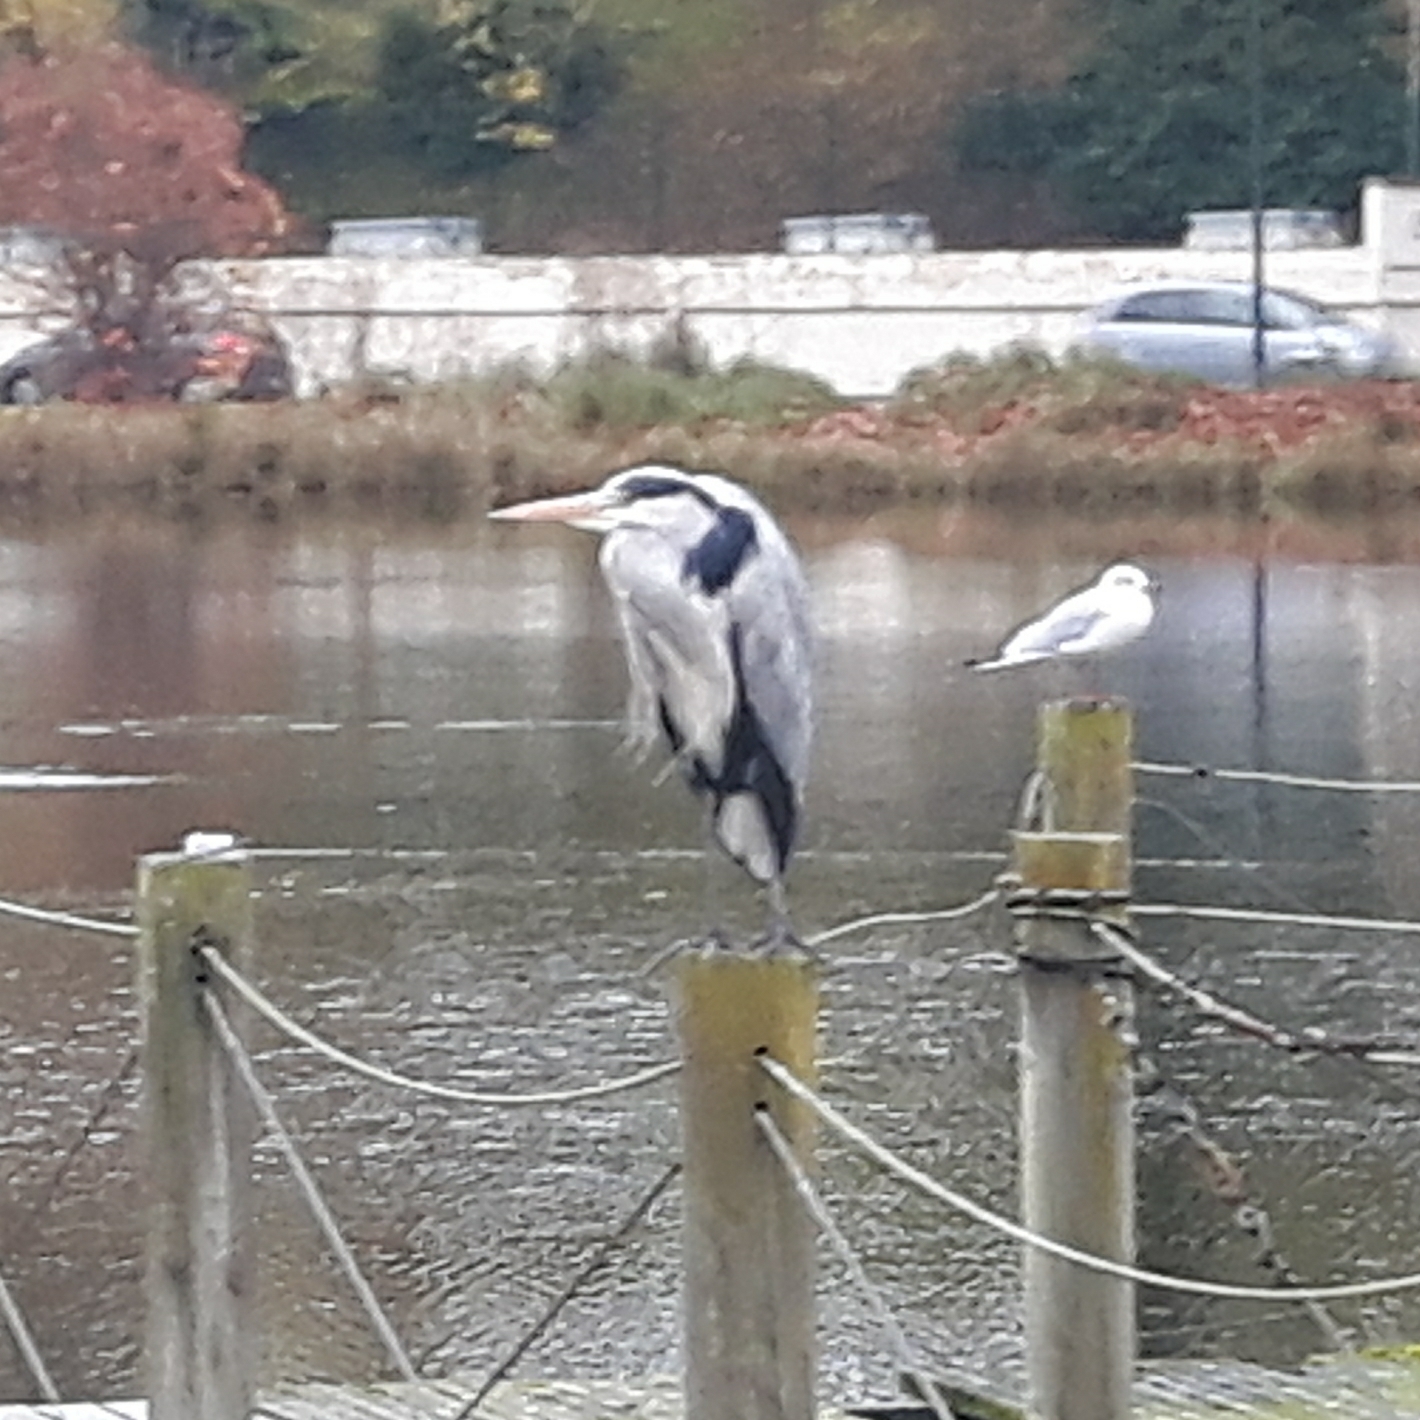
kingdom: Animalia
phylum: Chordata
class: Aves
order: Pelecaniformes
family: Ardeidae
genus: Ardea
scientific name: Ardea cinerea
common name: Grey heron
